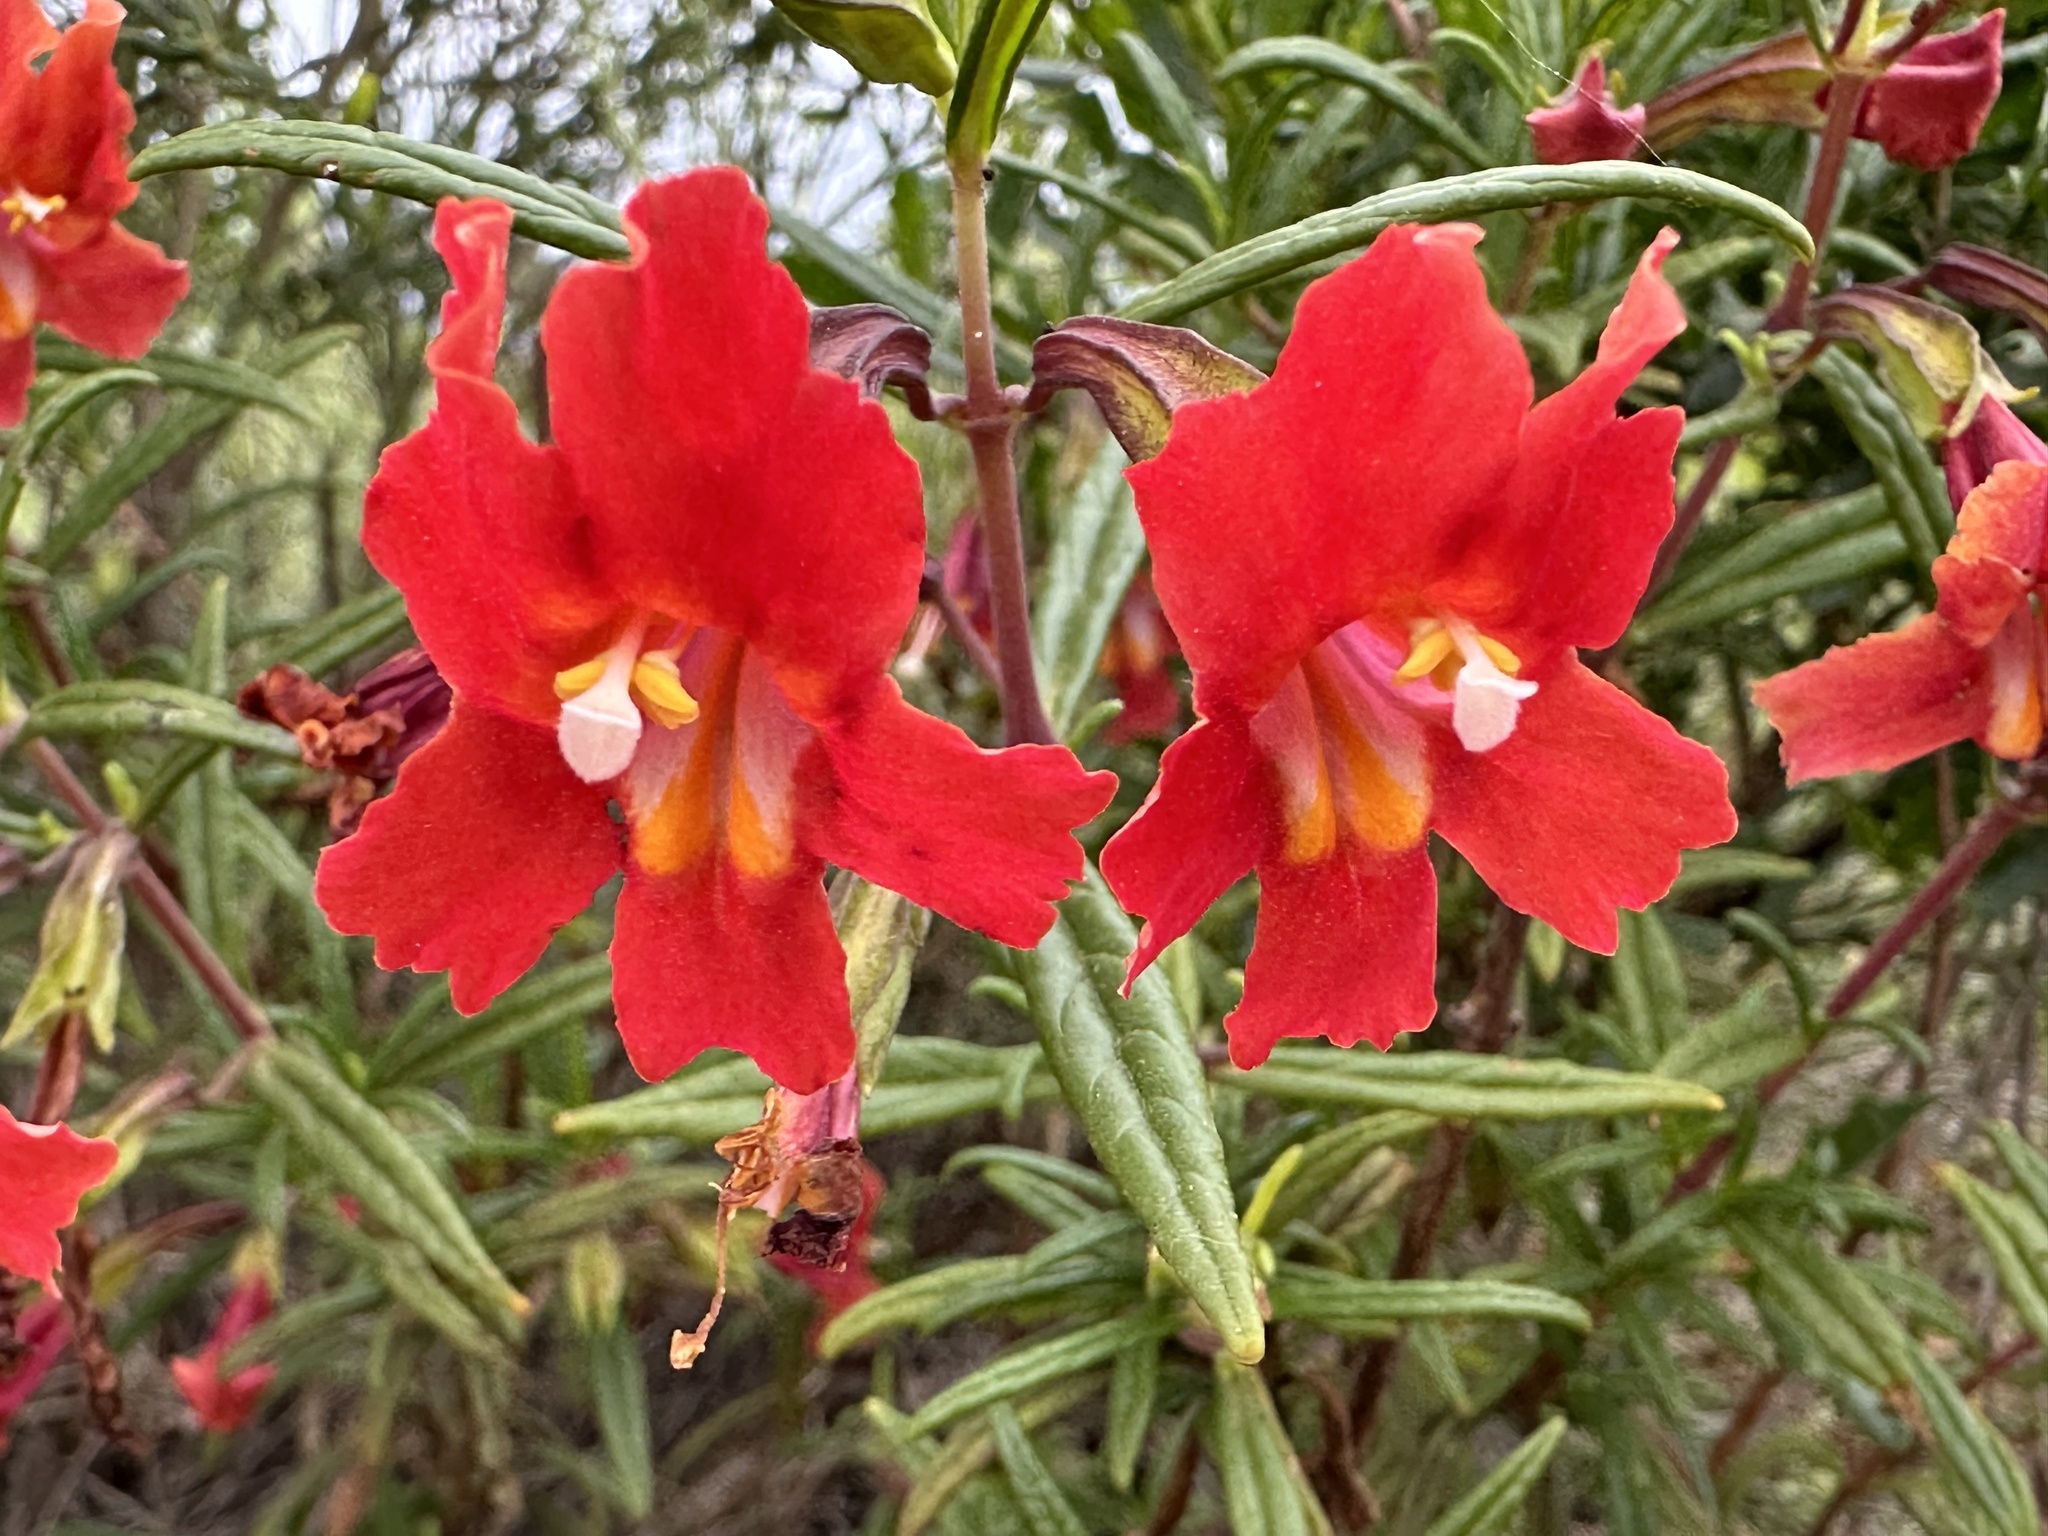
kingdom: Plantae
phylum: Tracheophyta
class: Magnoliopsida
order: Lamiales
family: Phrymaceae
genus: Diplacus
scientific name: Diplacus puniceus
